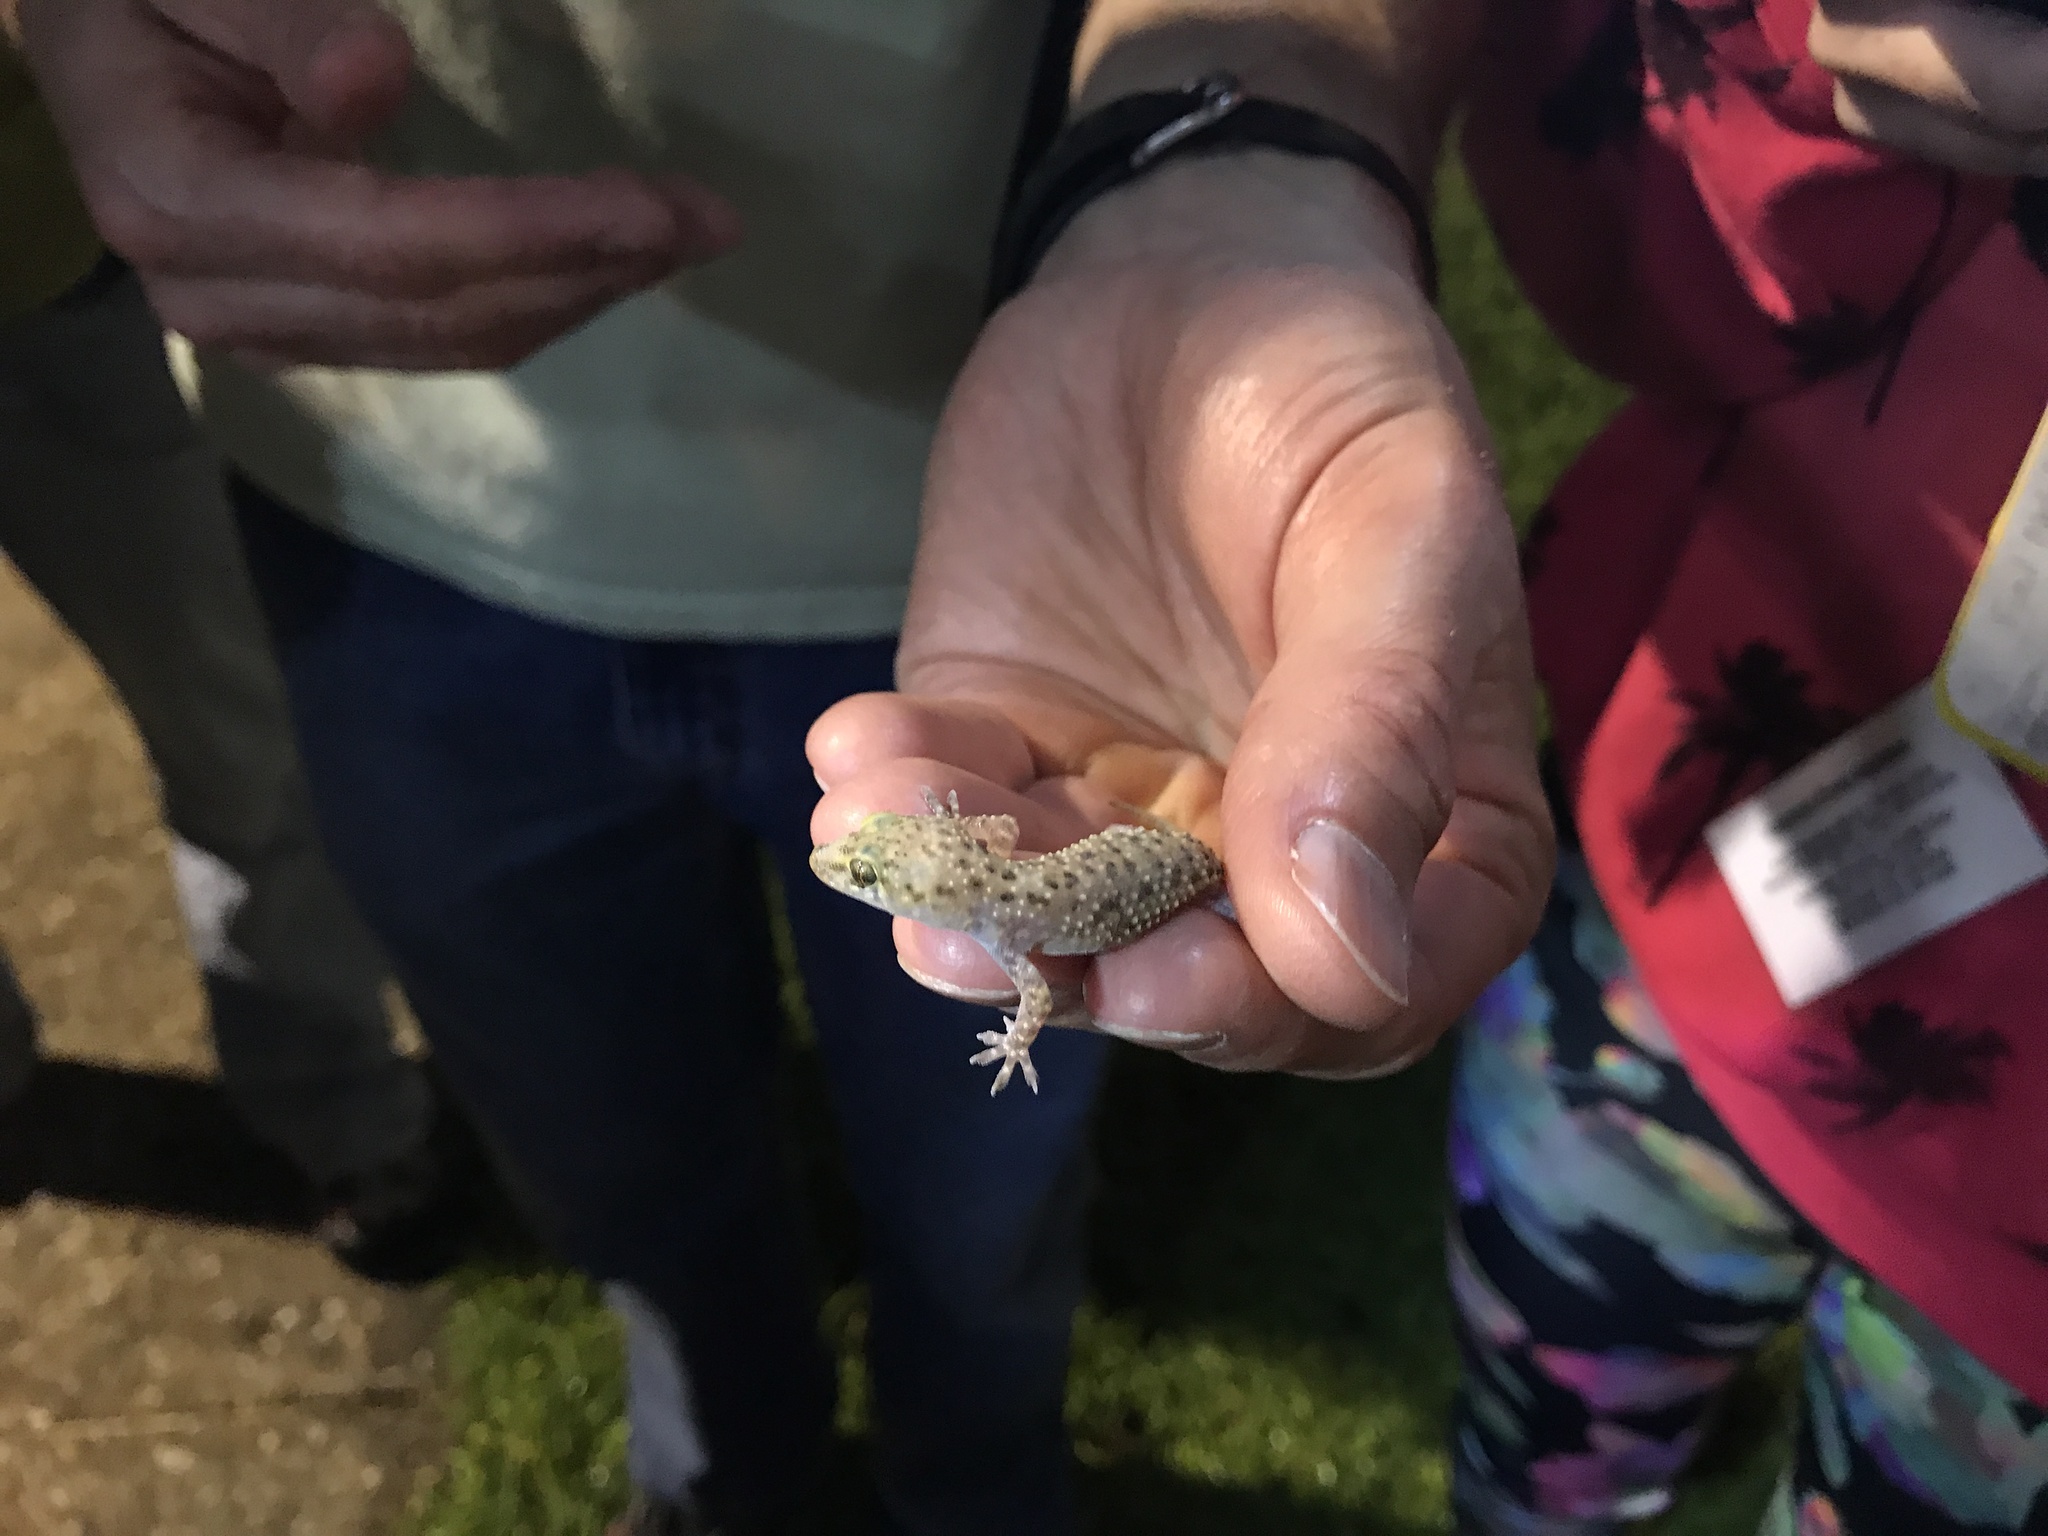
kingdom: Animalia
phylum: Chordata
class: Squamata
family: Gekkonidae
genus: Hemidactylus
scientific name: Hemidactylus turcicus
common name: Turkish gecko
